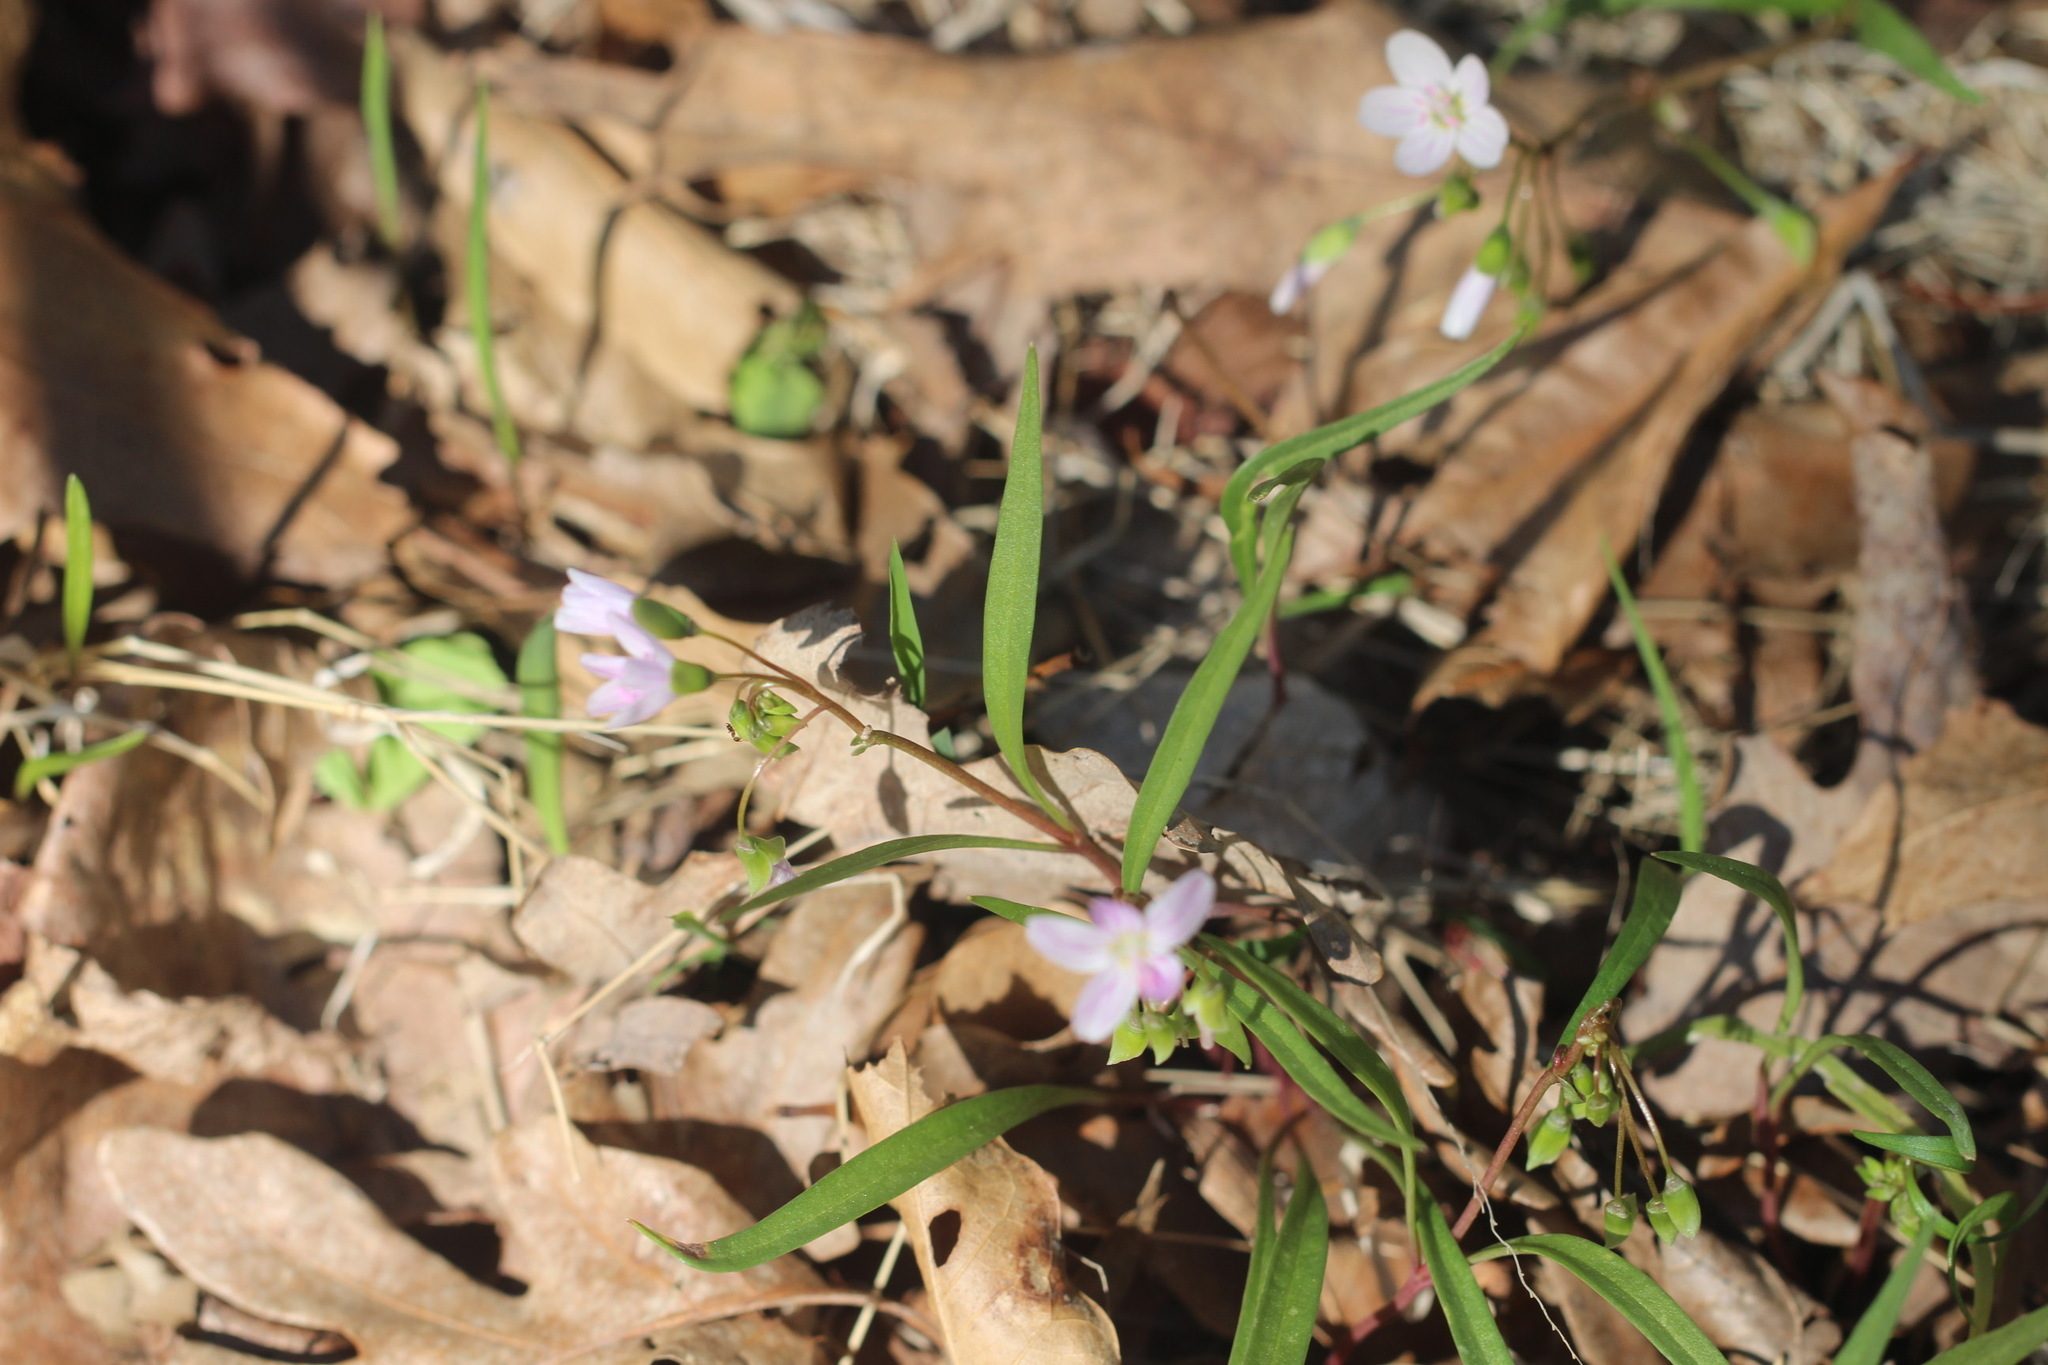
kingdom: Plantae
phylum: Tracheophyta
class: Magnoliopsida
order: Caryophyllales
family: Montiaceae
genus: Claytonia
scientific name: Claytonia virginica
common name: Virginia springbeauty
